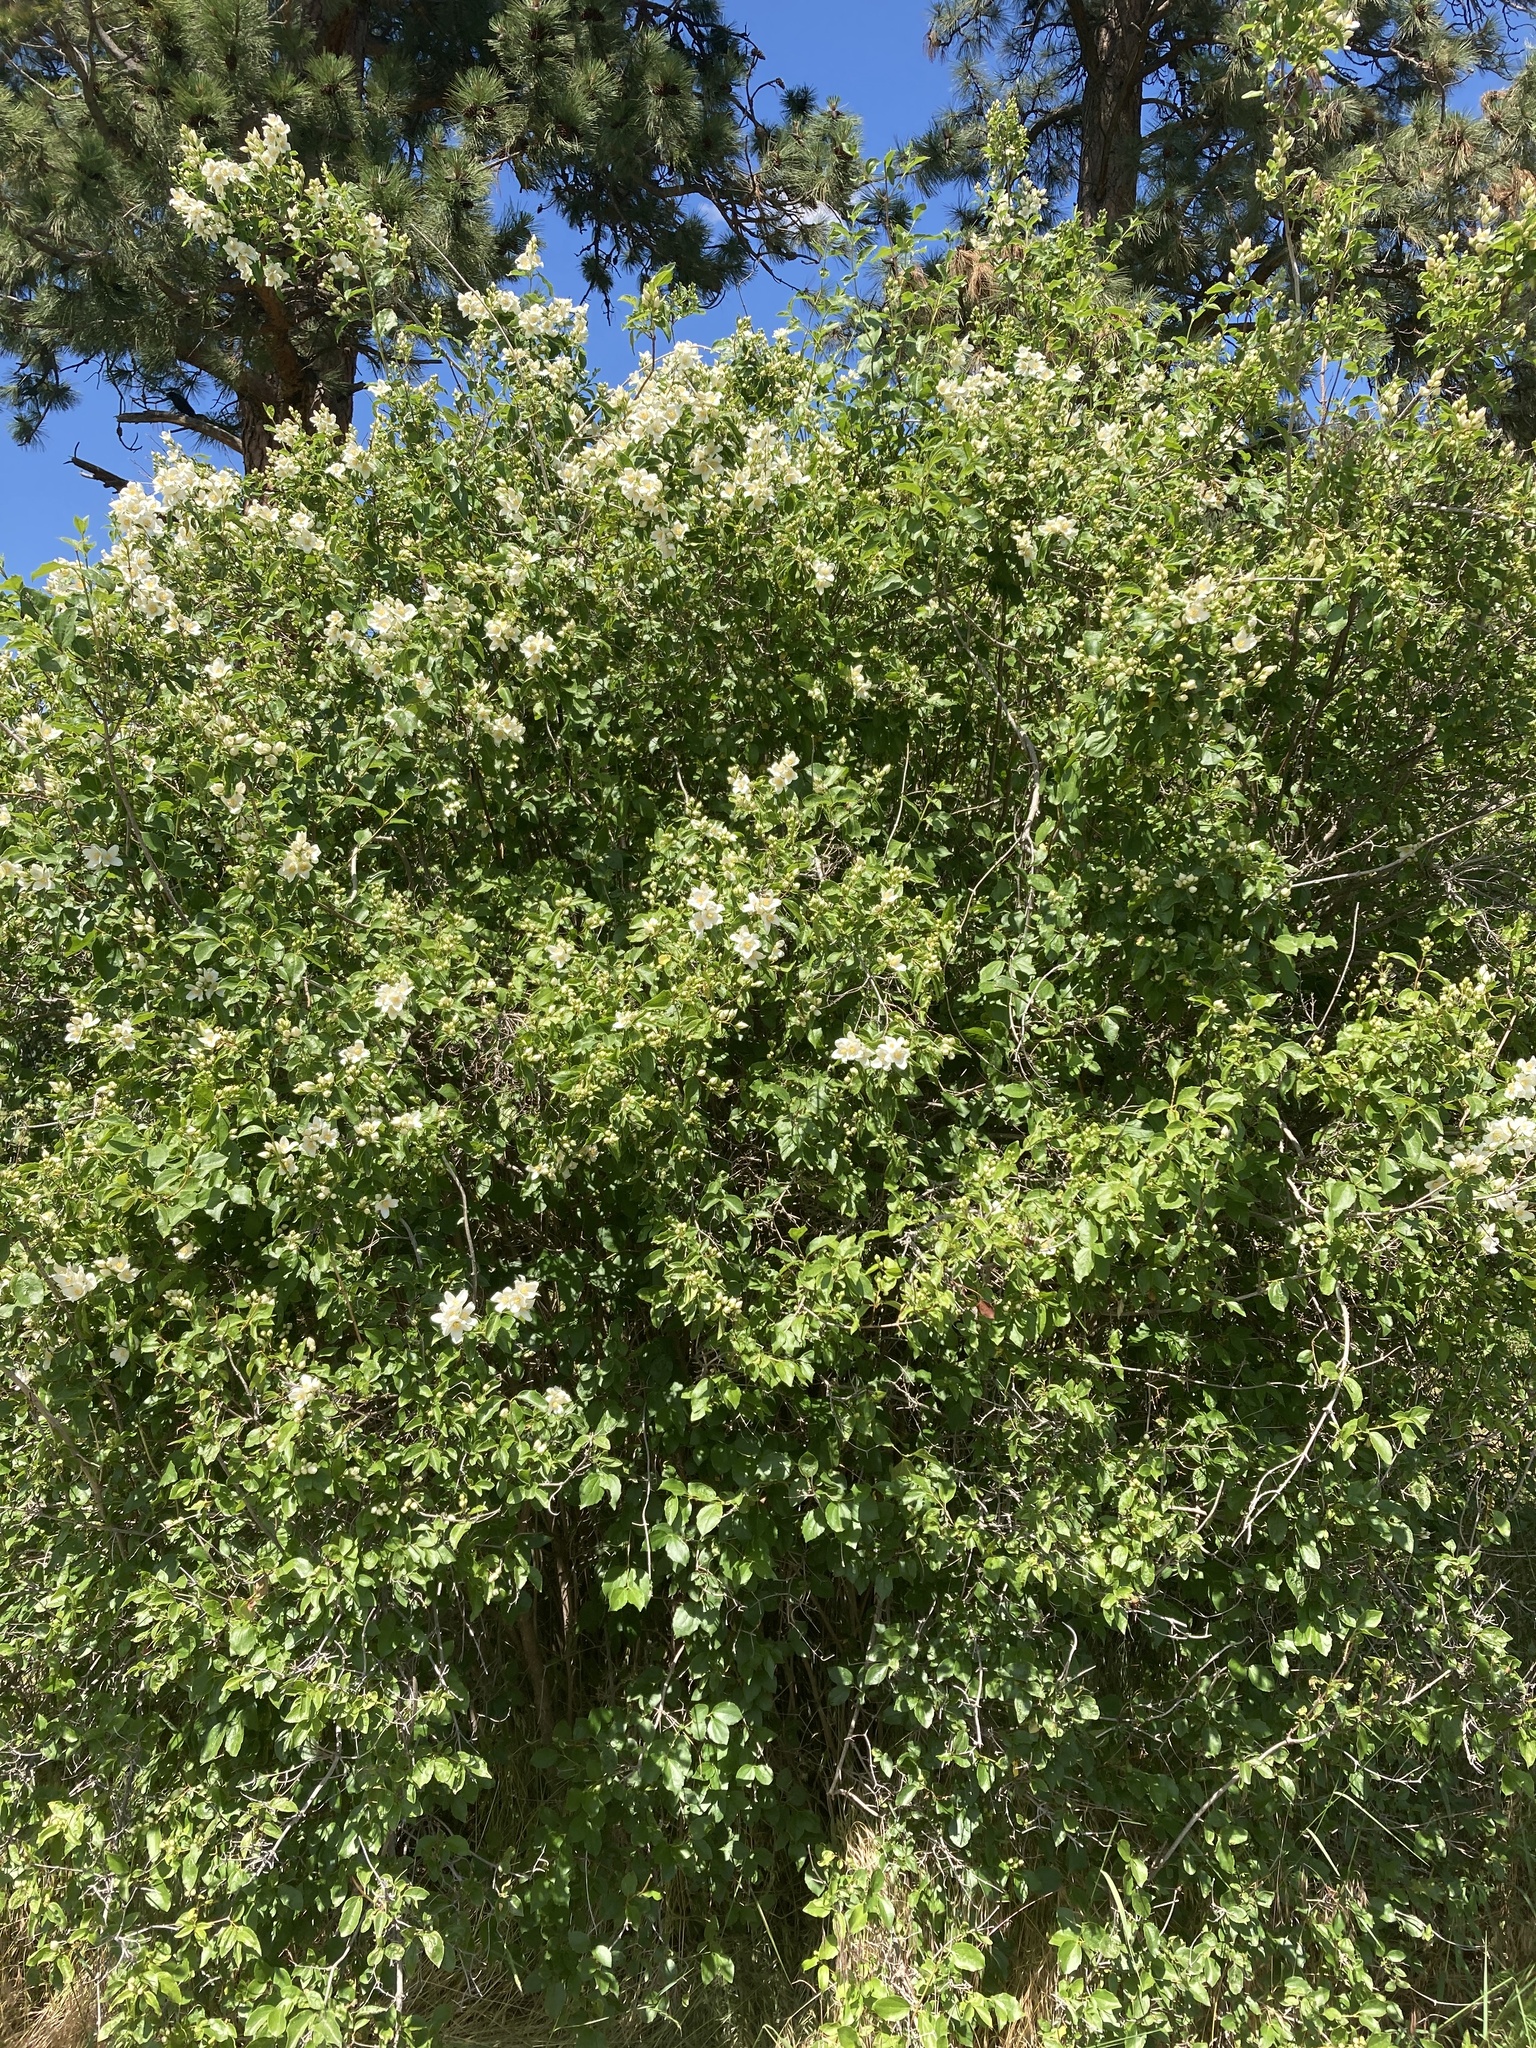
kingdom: Plantae
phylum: Tracheophyta
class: Magnoliopsida
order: Cornales
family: Hydrangeaceae
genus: Philadelphus
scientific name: Philadelphus lewisii
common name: Lewis's mock orange
